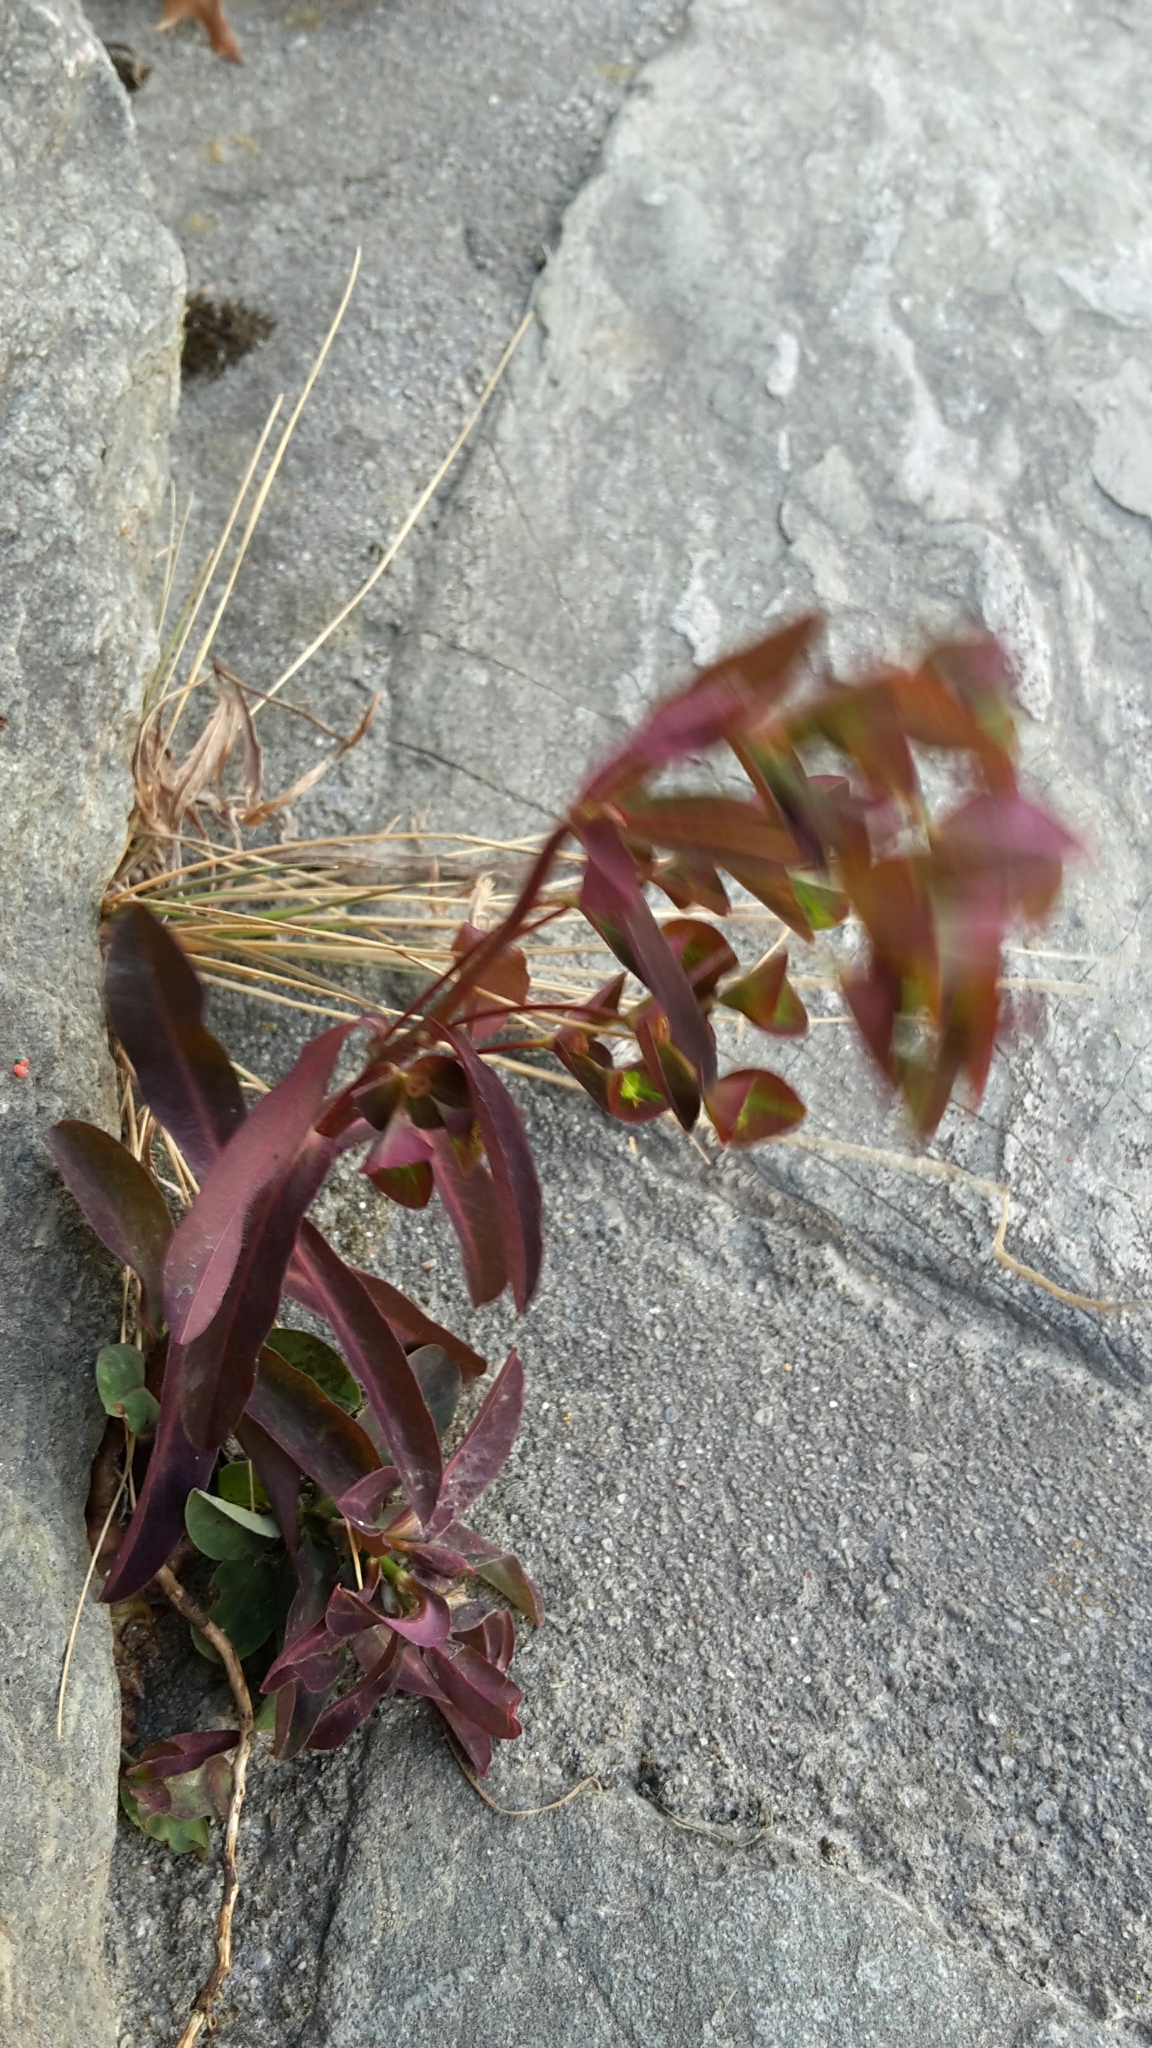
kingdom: Plantae
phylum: Tracheophyta
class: Magnoliopsida
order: Malpighiales
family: Euphorbiaceae
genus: Euphorbia
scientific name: Euphorbia dulcis
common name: Sweet spurge
